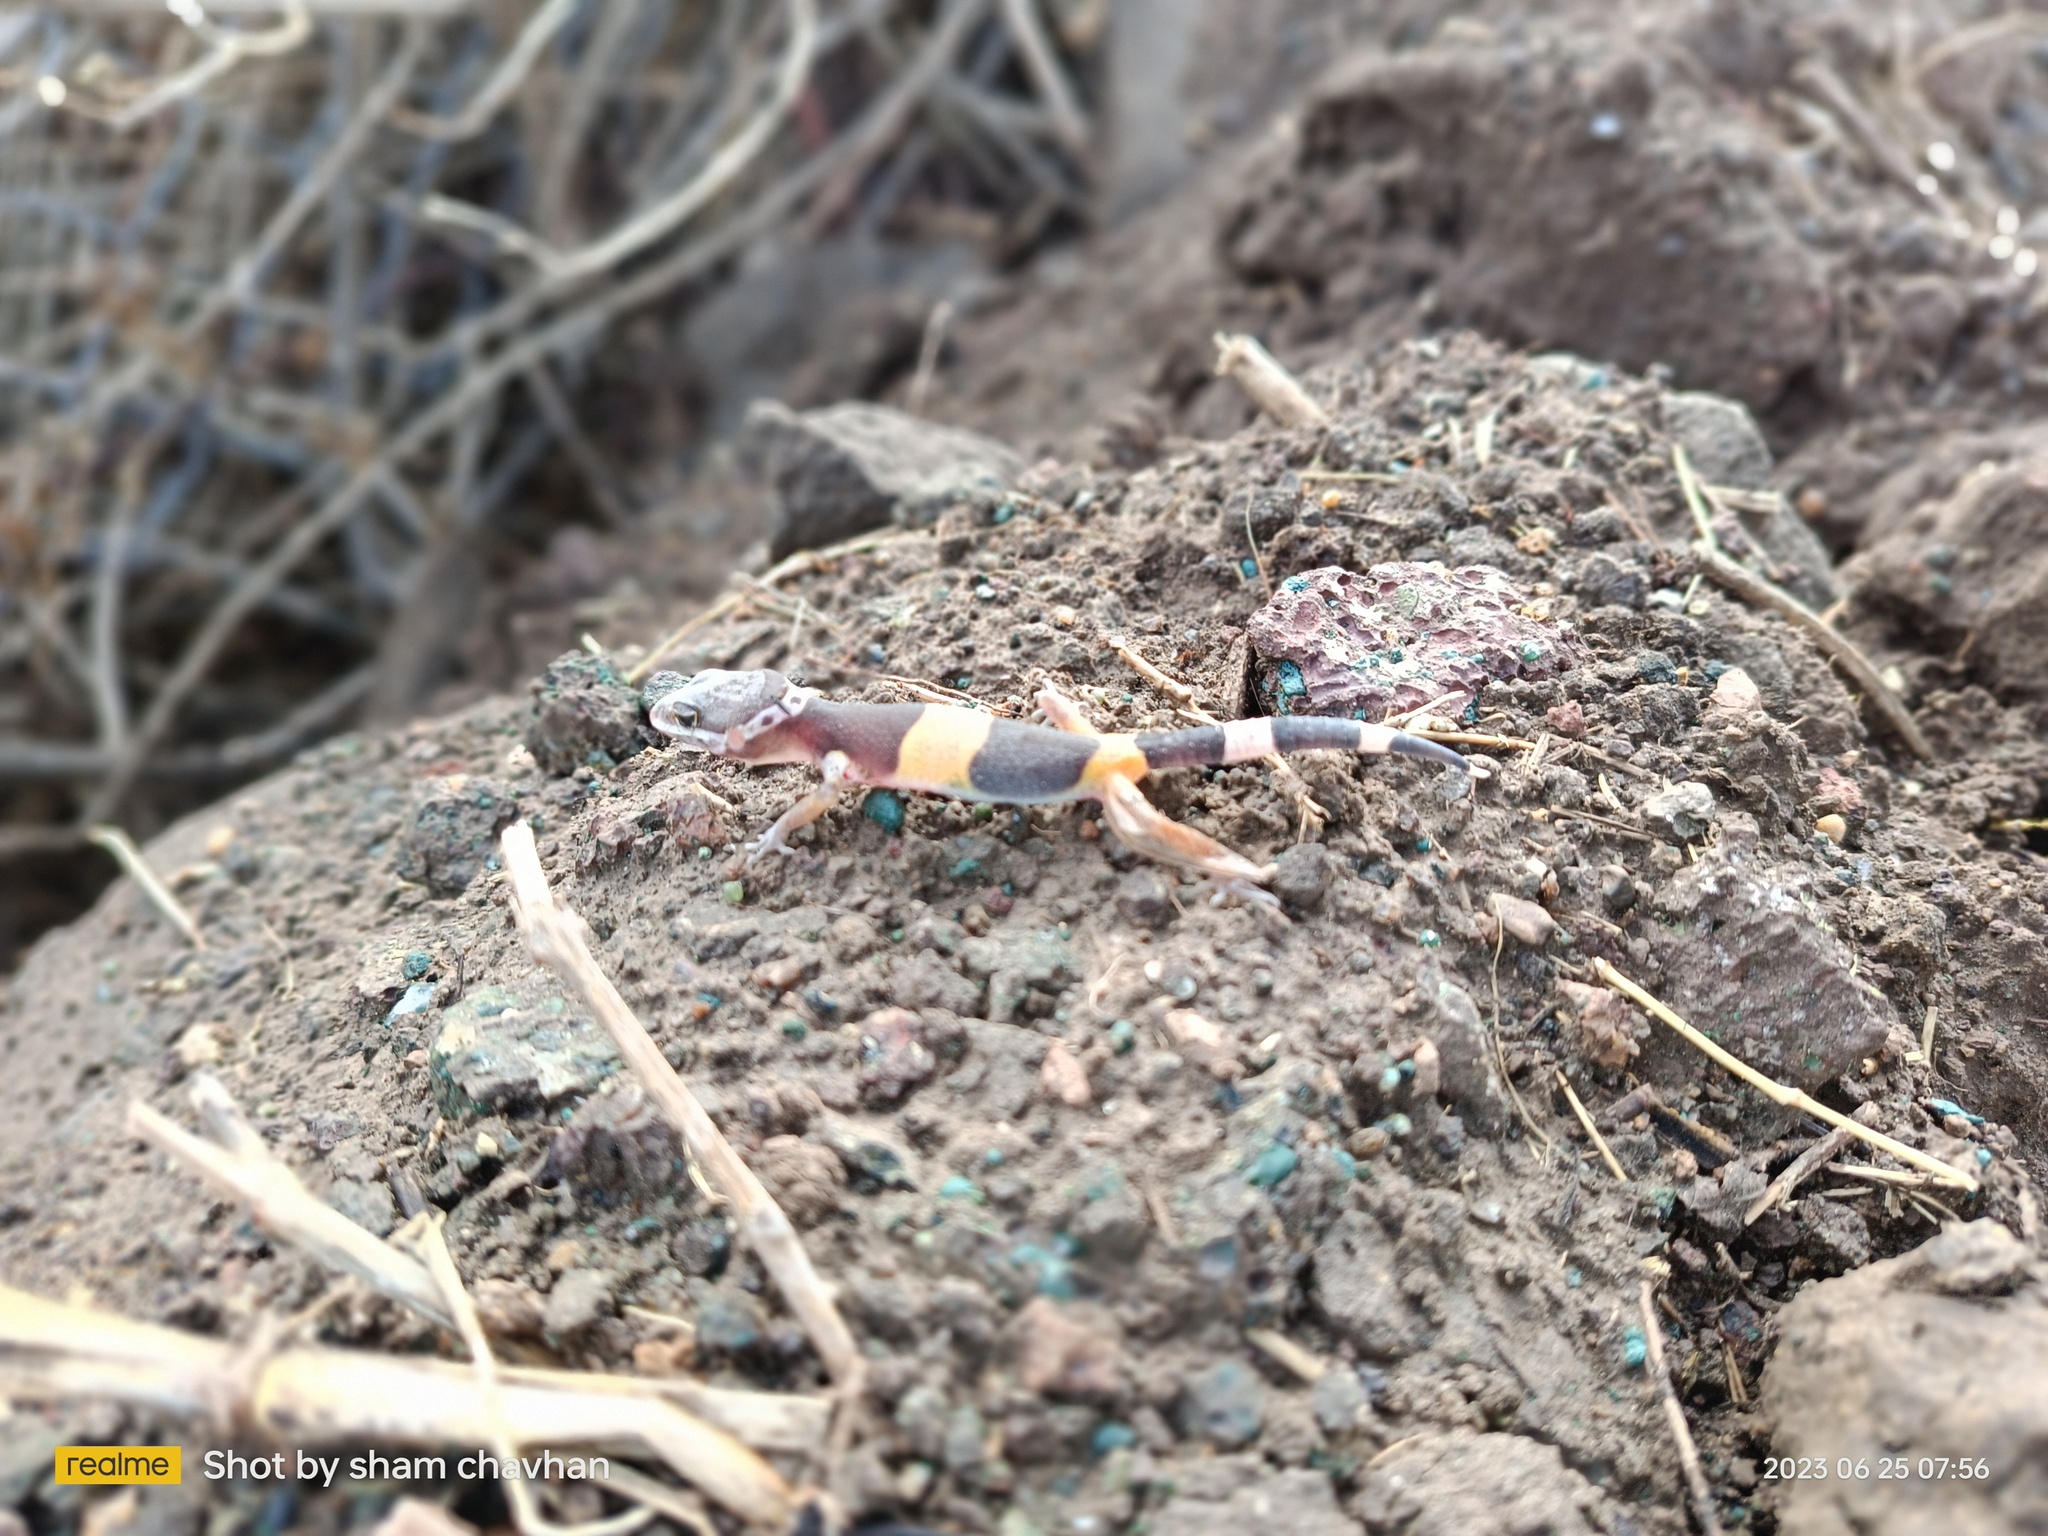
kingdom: Animalia
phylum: Chordata
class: Squamata
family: Eublepharidae
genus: Eublepharis
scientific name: Eublepharis fuscus
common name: Western indian leopard gecko
